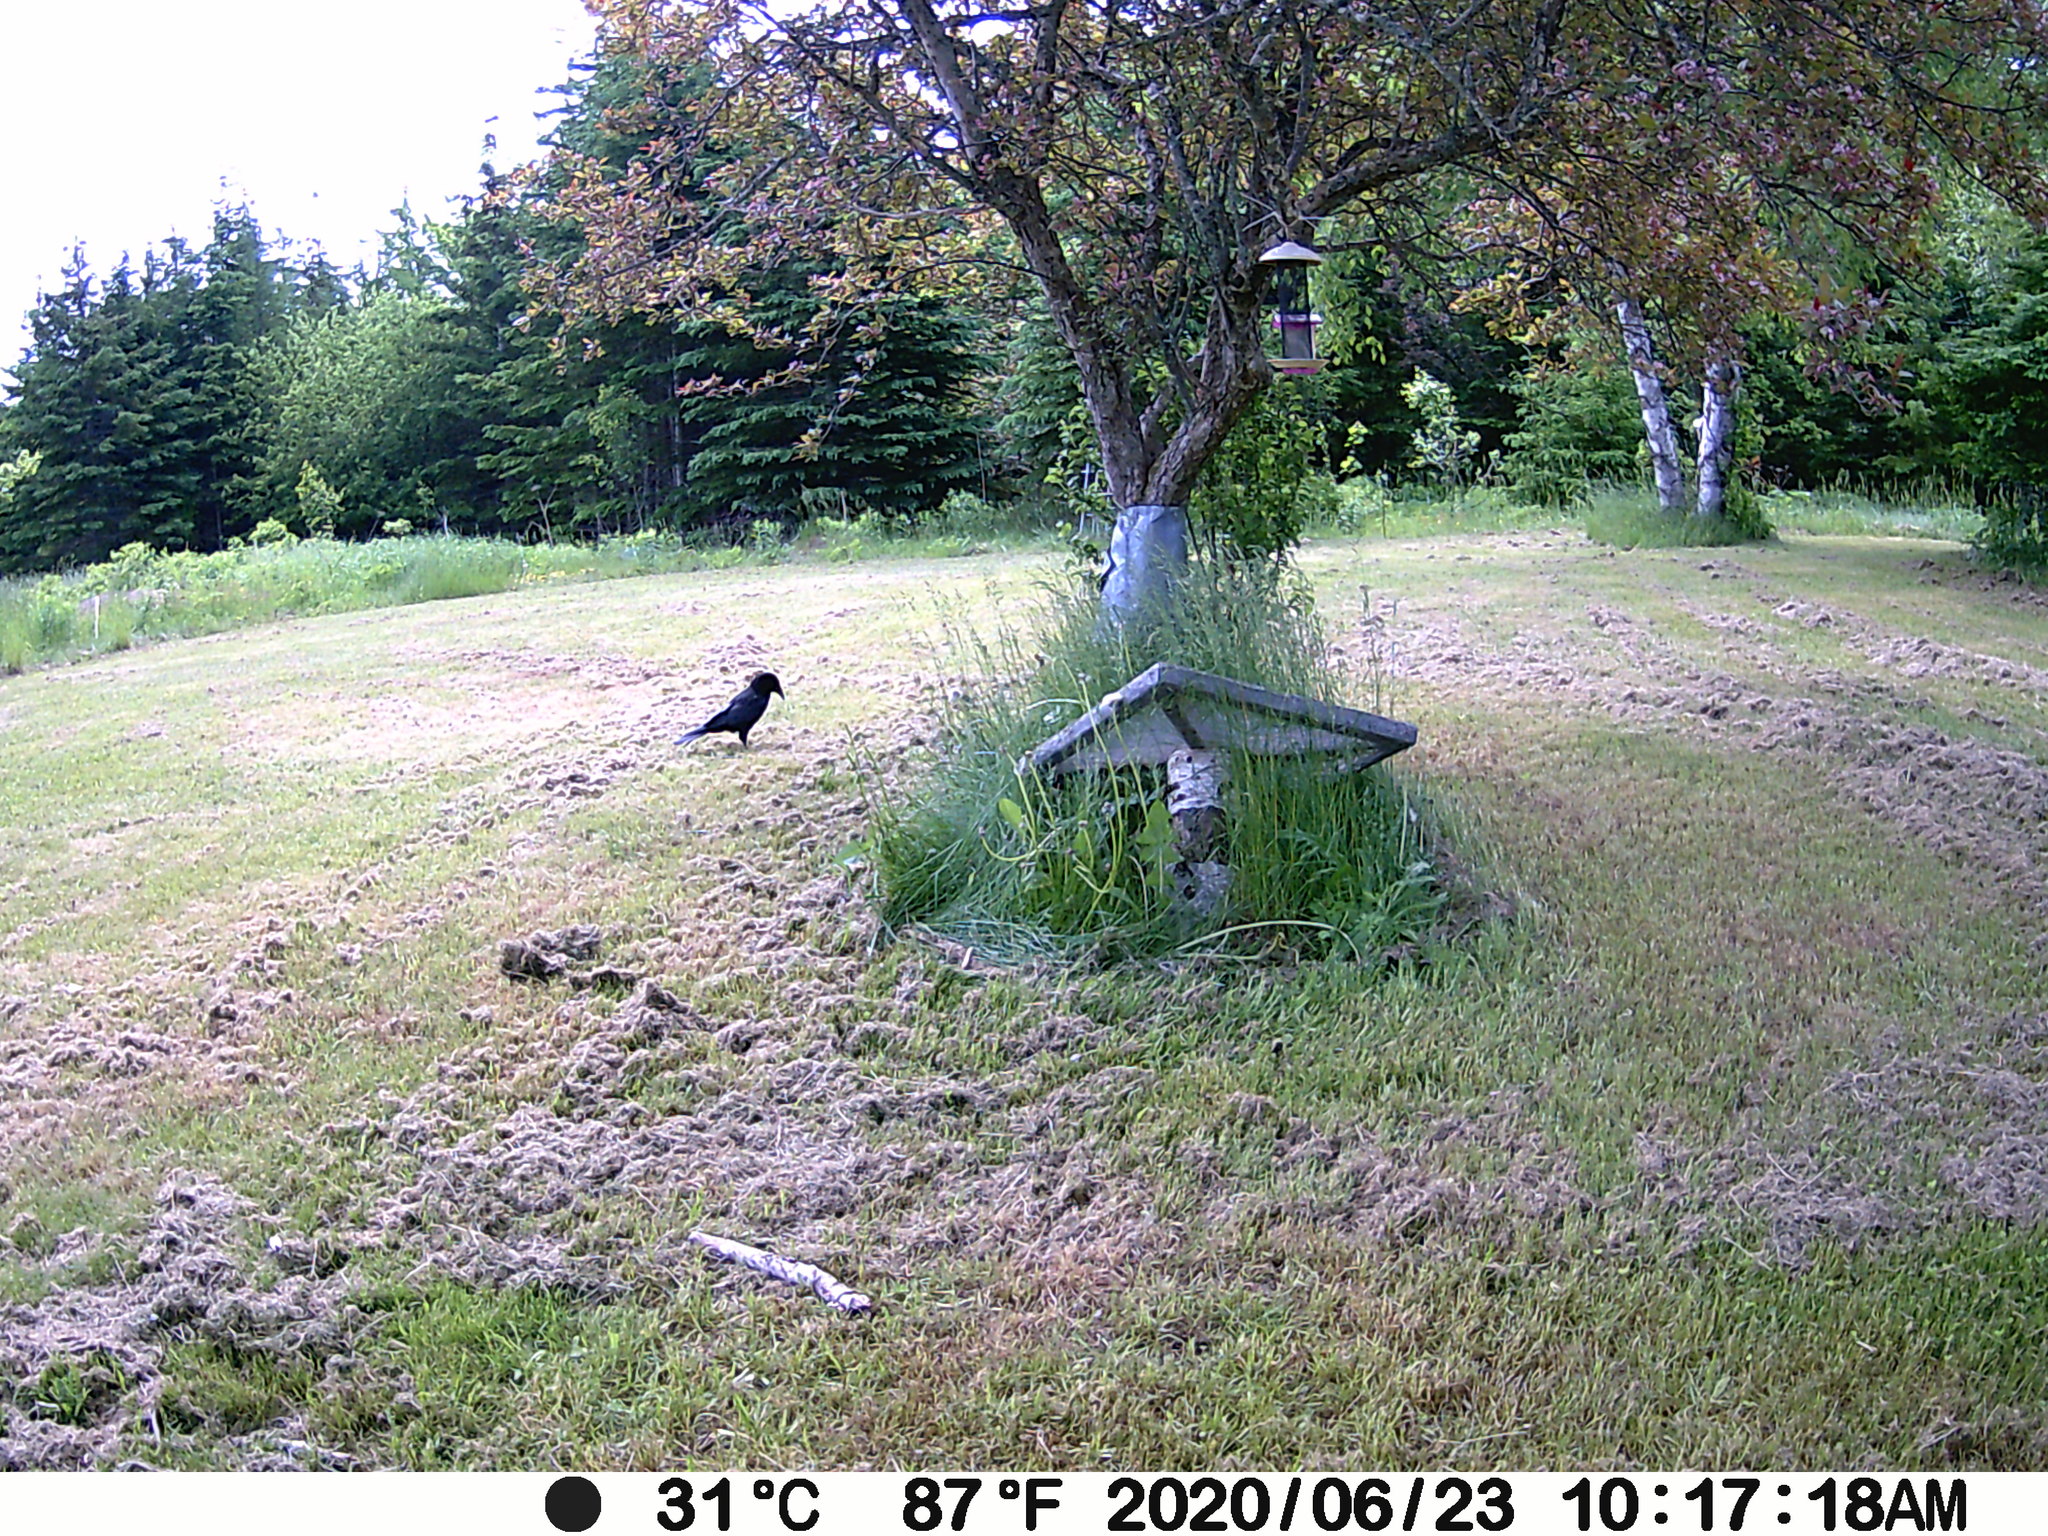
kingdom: Animalia
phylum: Chordata
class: Aves
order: Passeriformes
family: Corvidae
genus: Corvus
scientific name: Corvus brachyrhynchos
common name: American crow
